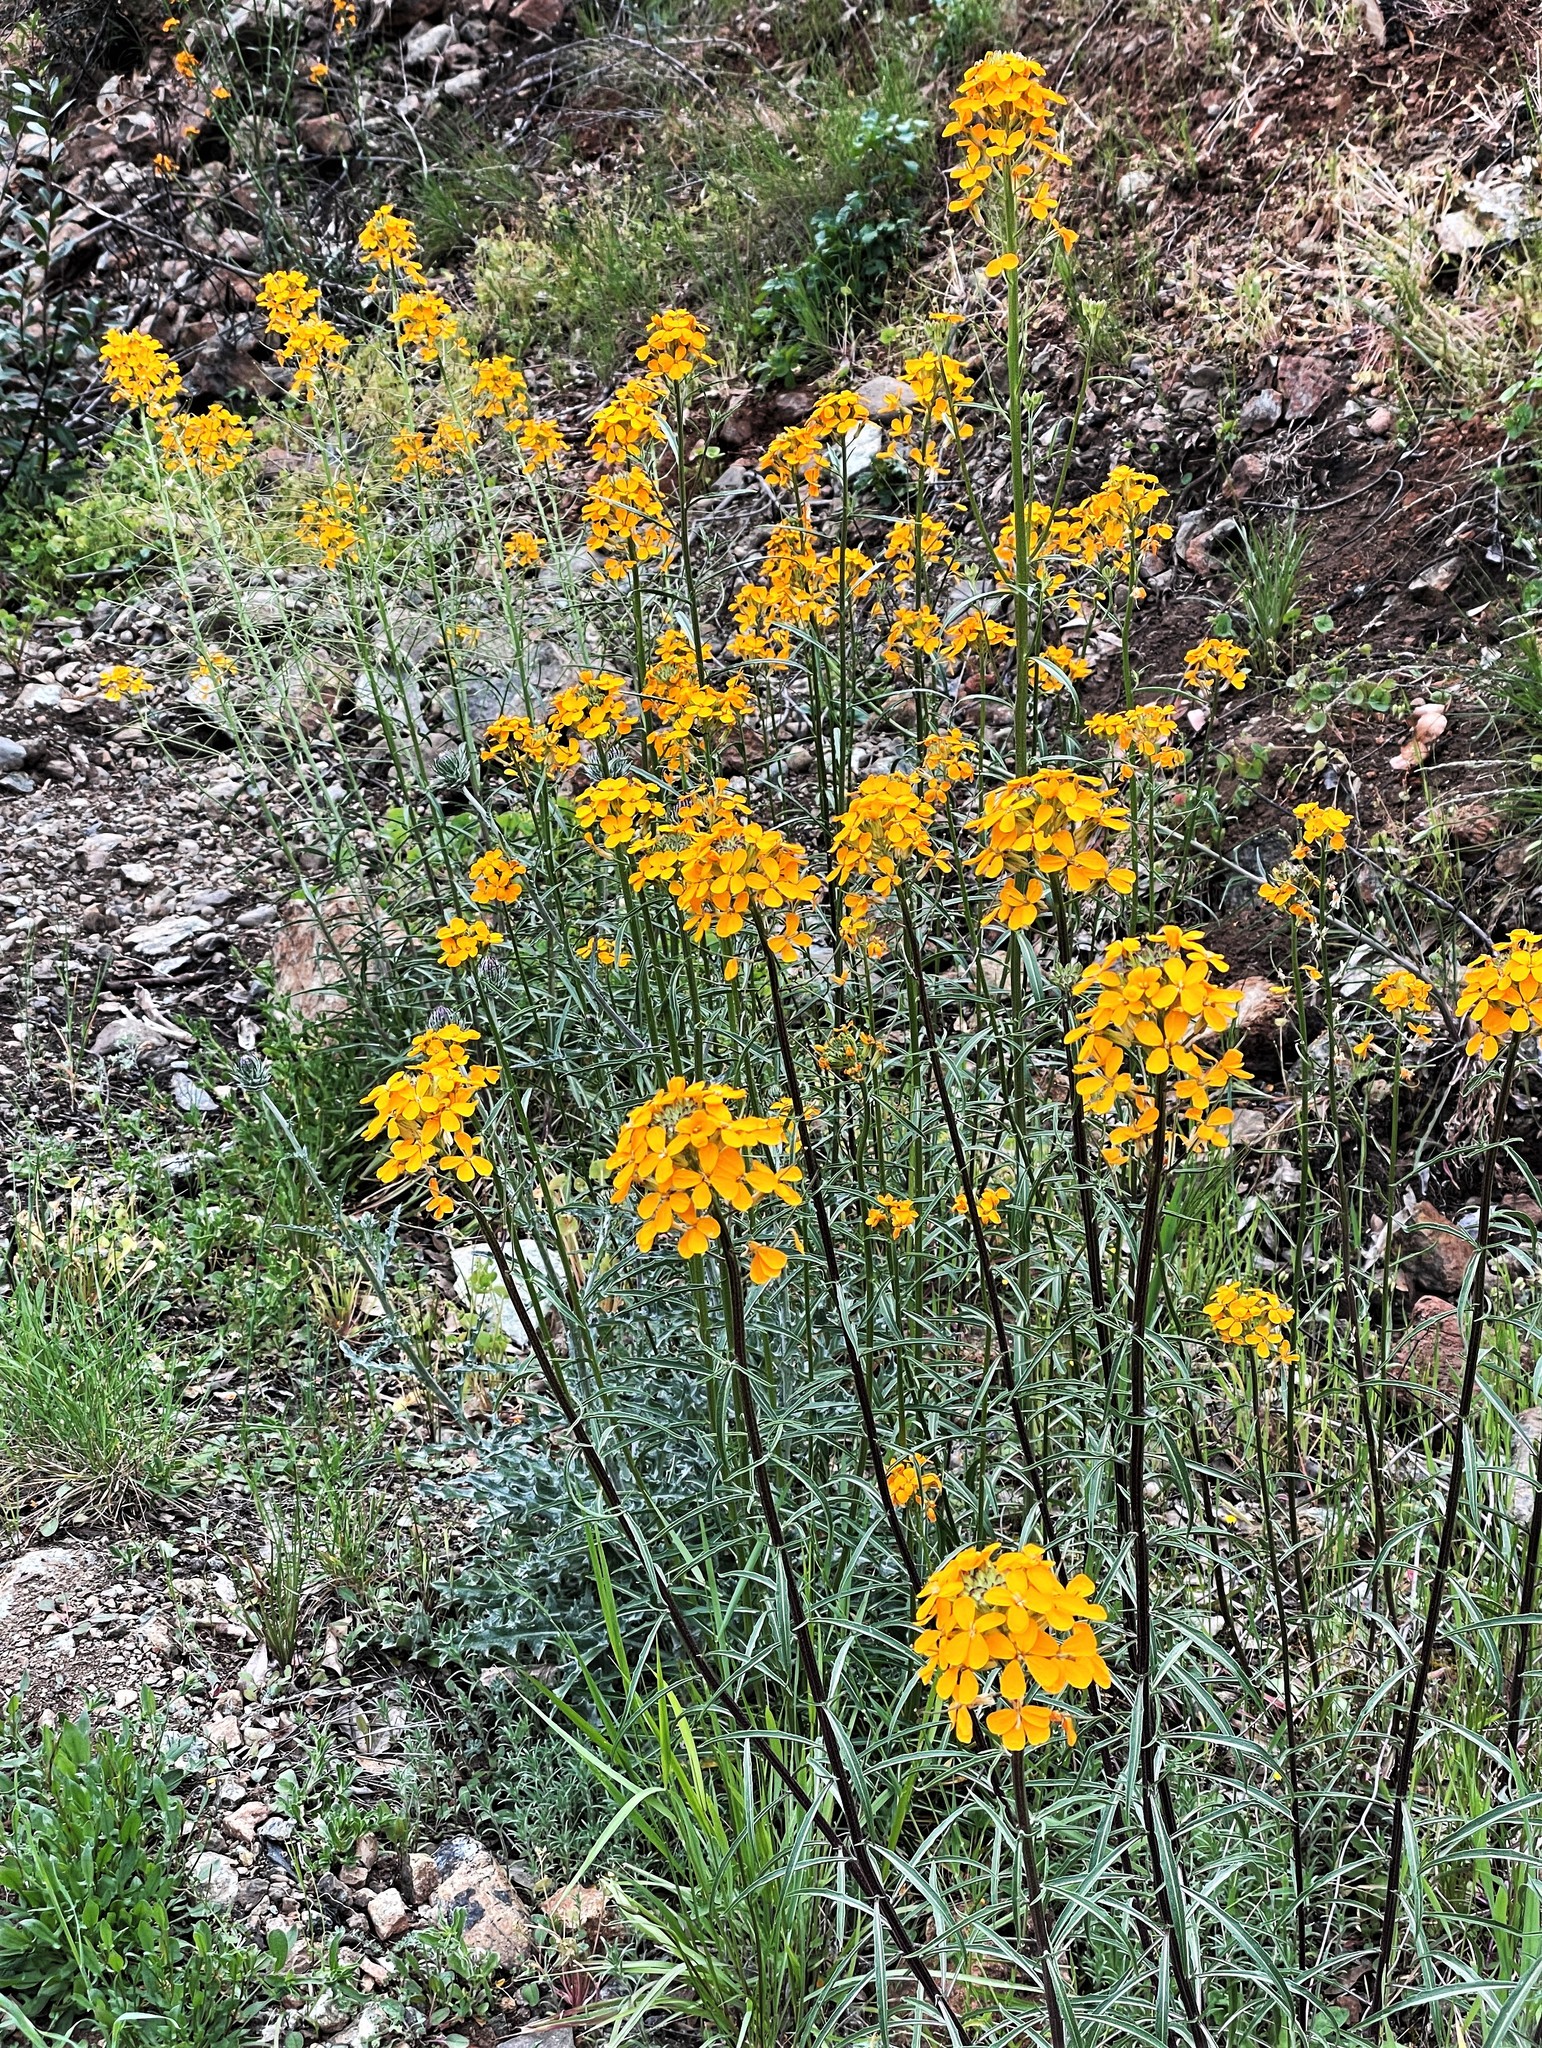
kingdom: Plantae
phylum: Tracheophyta
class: Magnoliopsida
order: Brassicales
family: Brassicaceae
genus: Erysimum
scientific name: Erysimum capitatum
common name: Western wallflower
